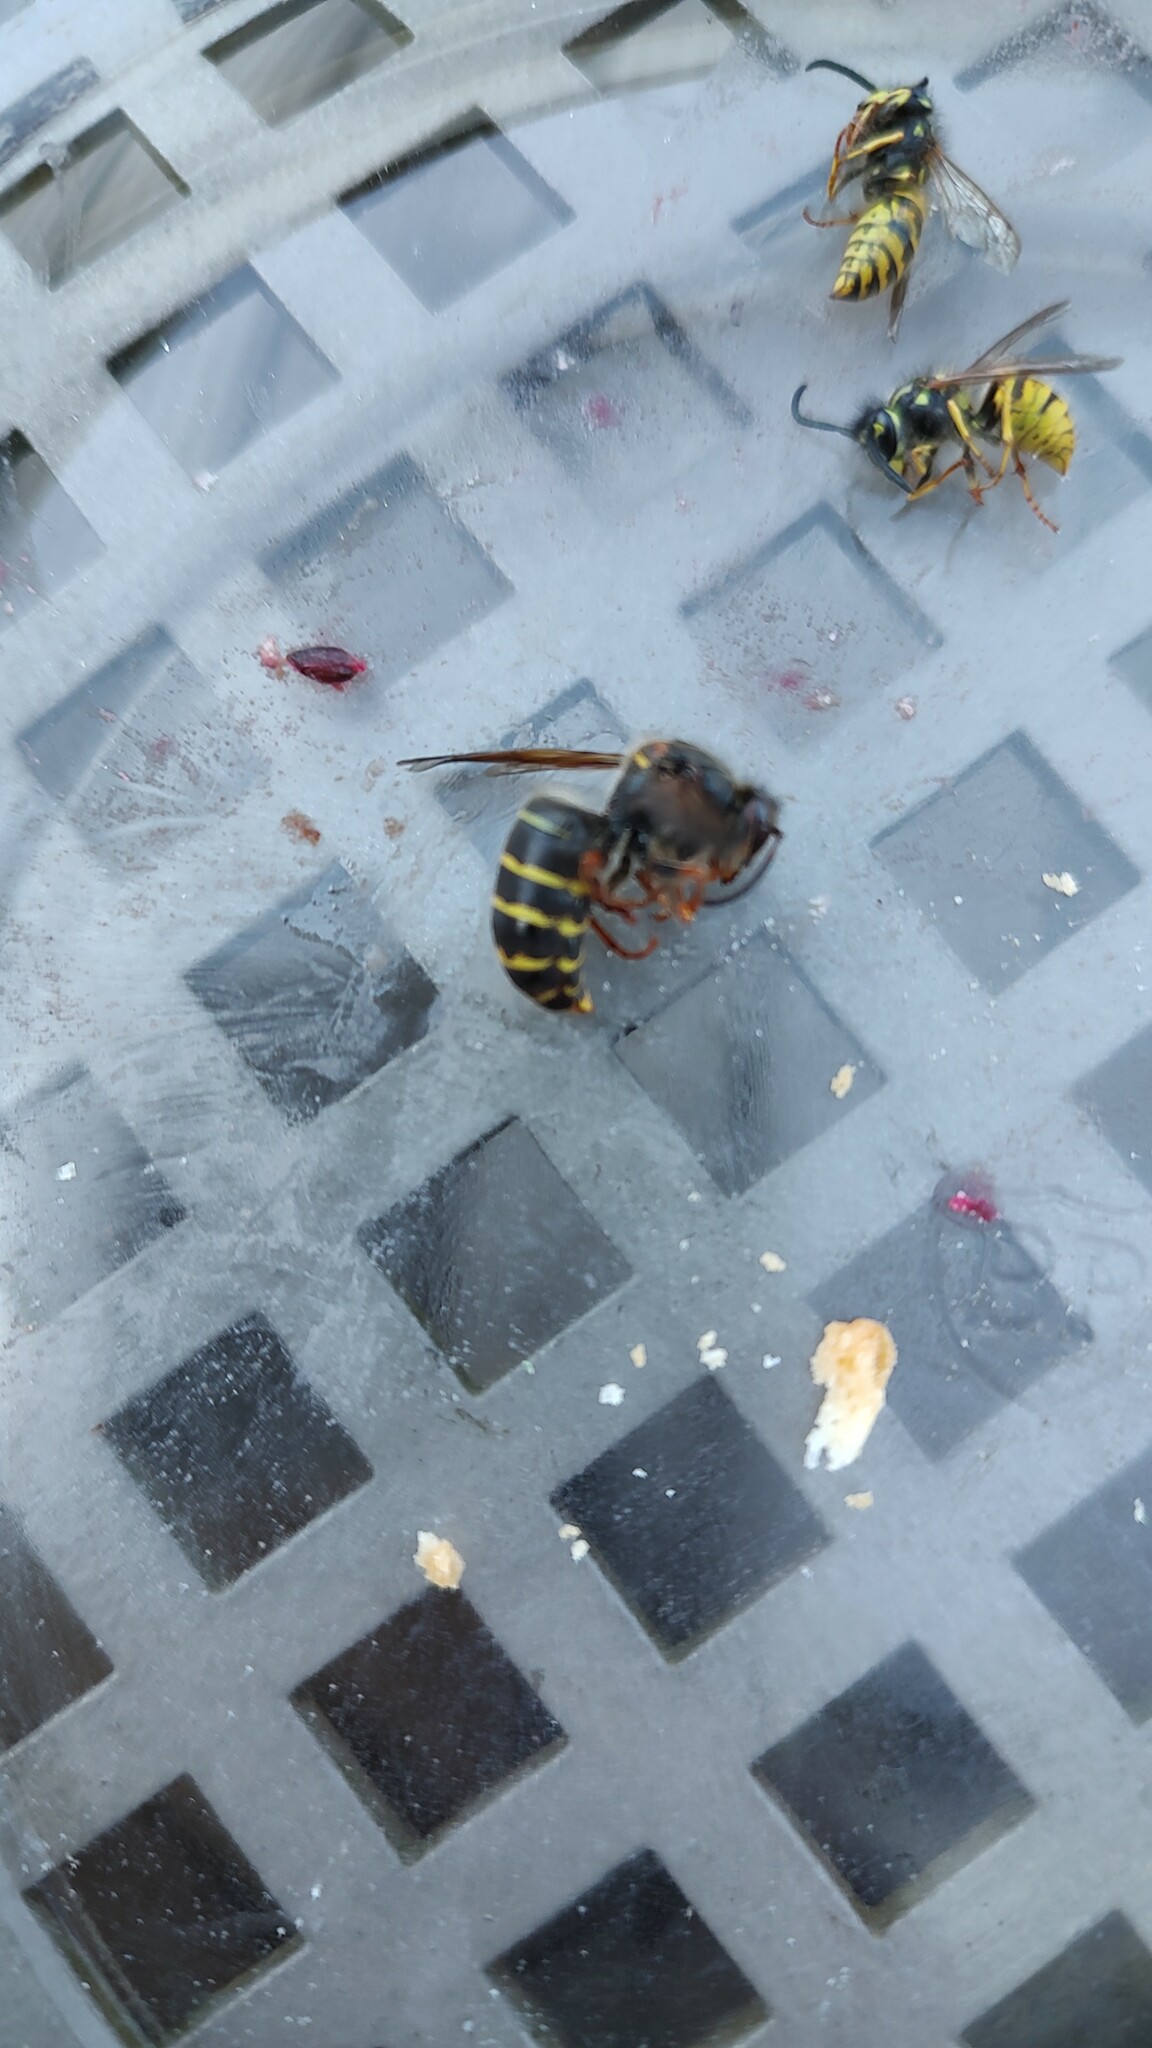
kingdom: Animalia
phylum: Arthropoda
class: Insecta
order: Hymenoptera
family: Vespidae
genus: Dolichovespula
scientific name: Dolichovespula media
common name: Median wasp
